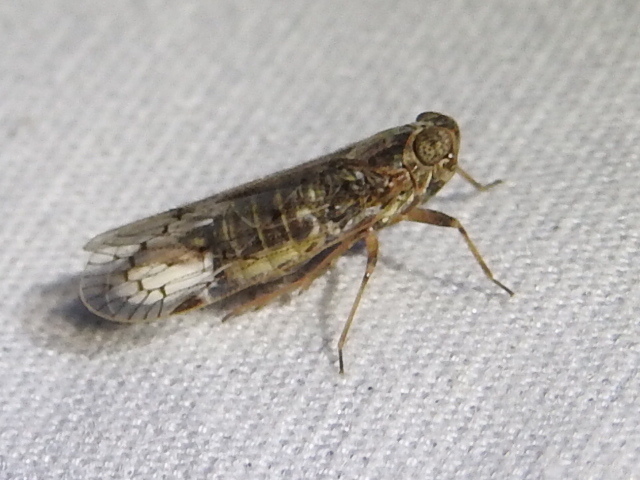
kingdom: Animalia
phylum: Arthropoda
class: Insecta
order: Hemiptera
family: Cixiidae
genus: Melanoliarus
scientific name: Melanoliarus aridus
